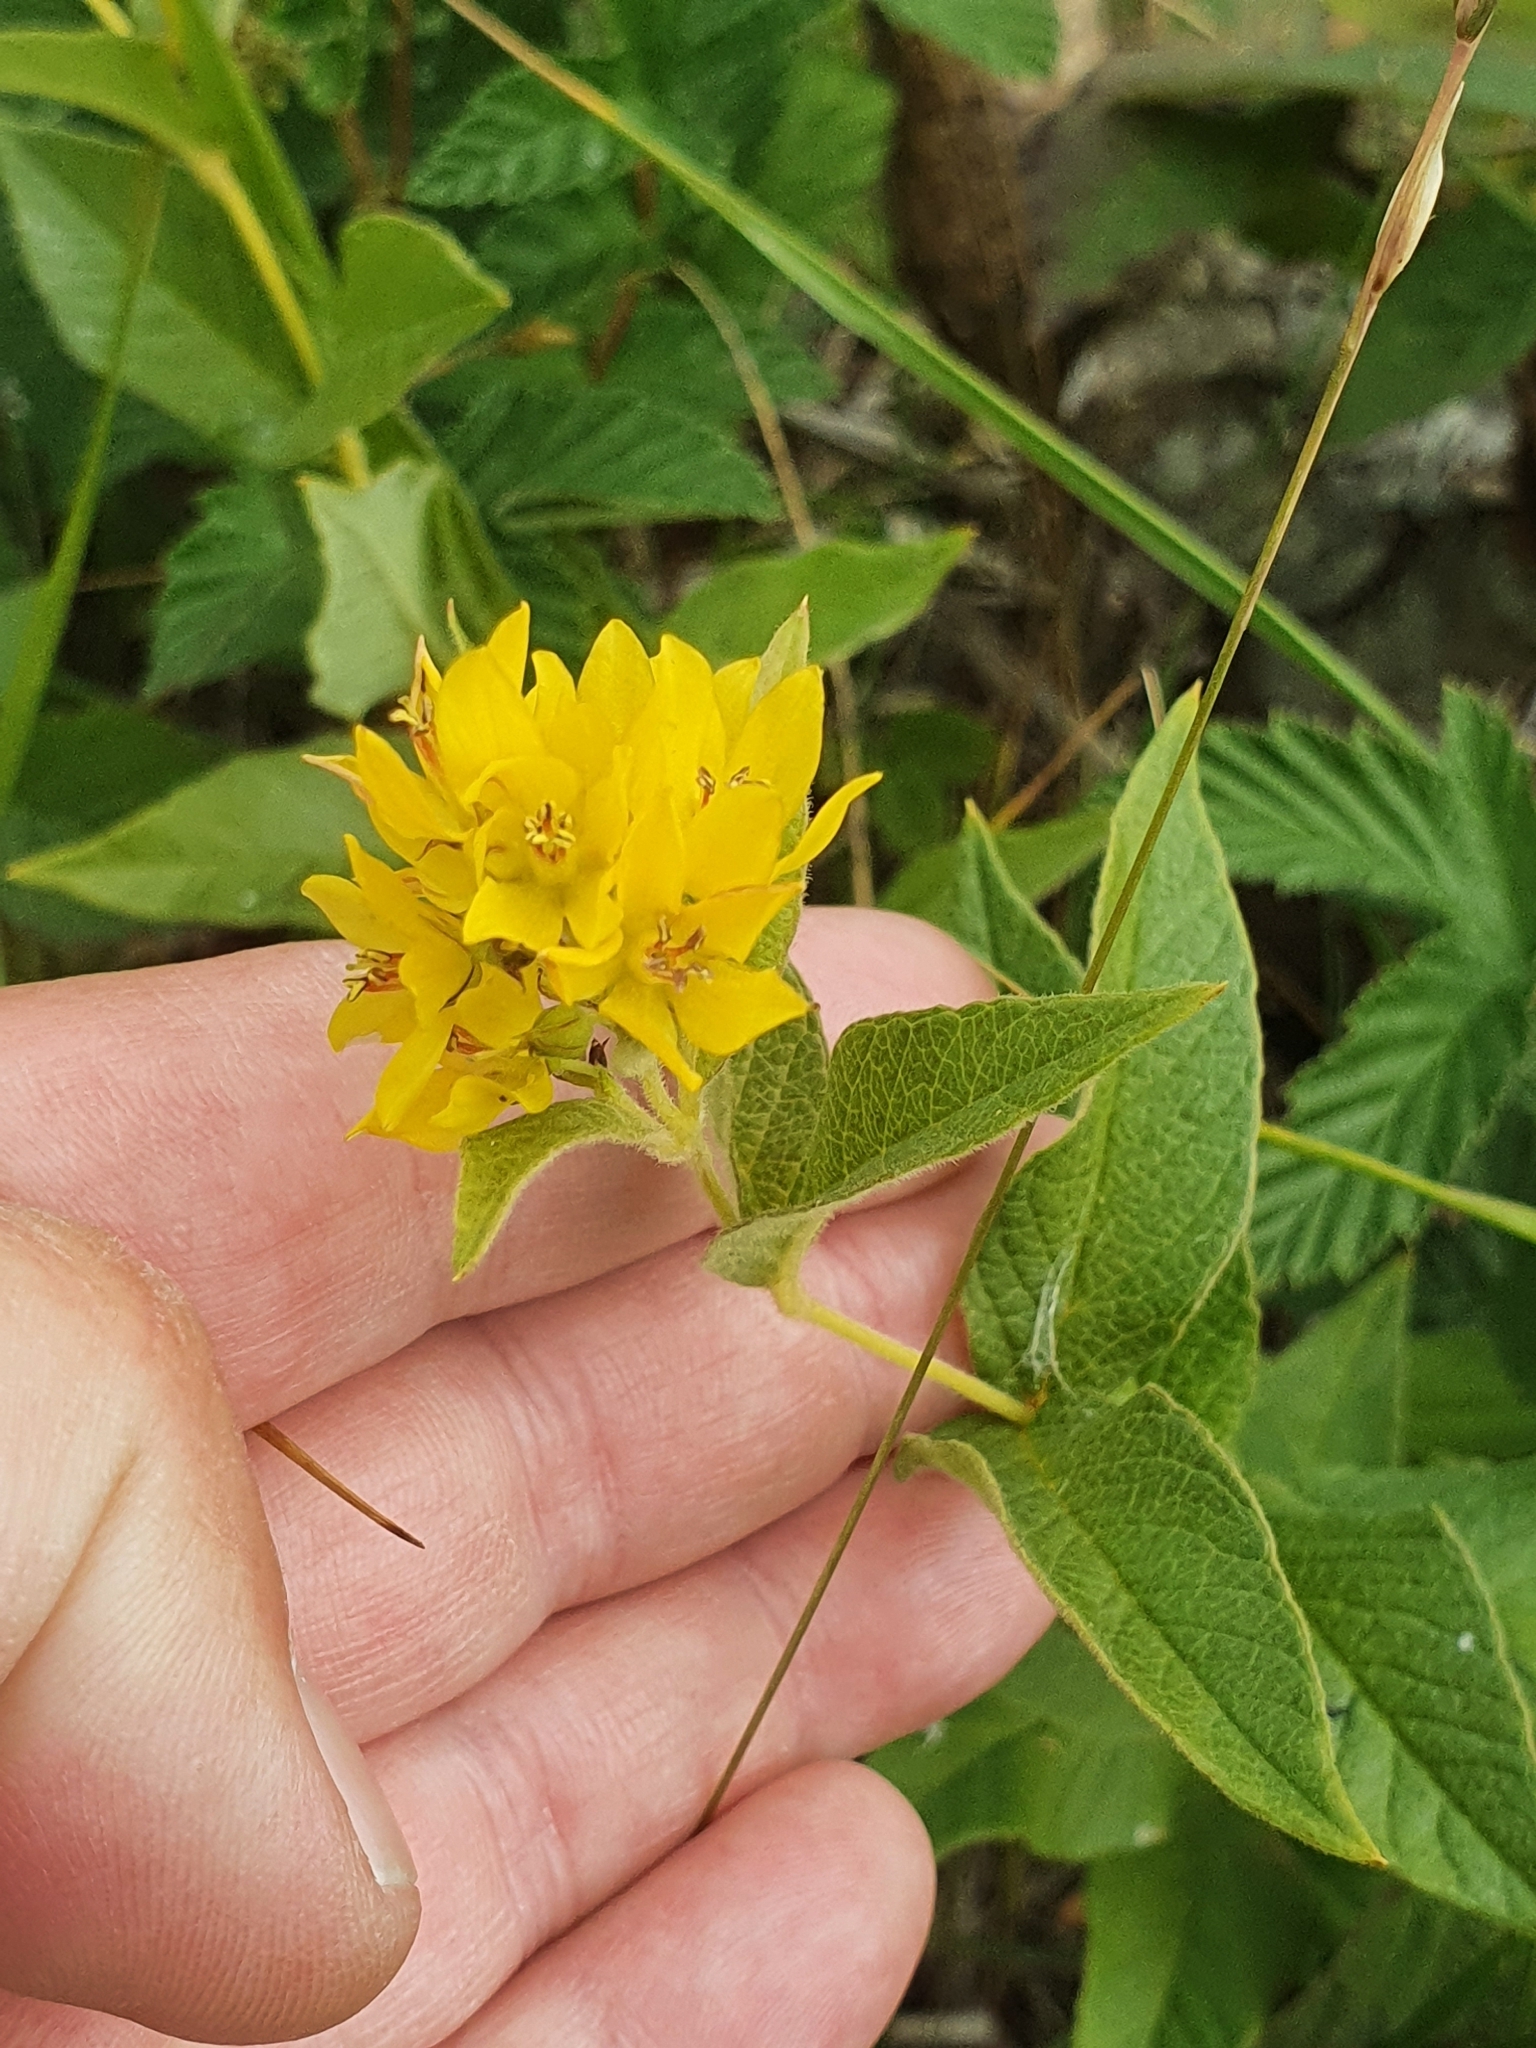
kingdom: Plantae
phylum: Tracheophyta
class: Magnoliopsida
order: Ericales
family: Primulaceae
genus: Lysimachia
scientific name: Lysimachia vulgaris
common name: Yellow loosestrife
